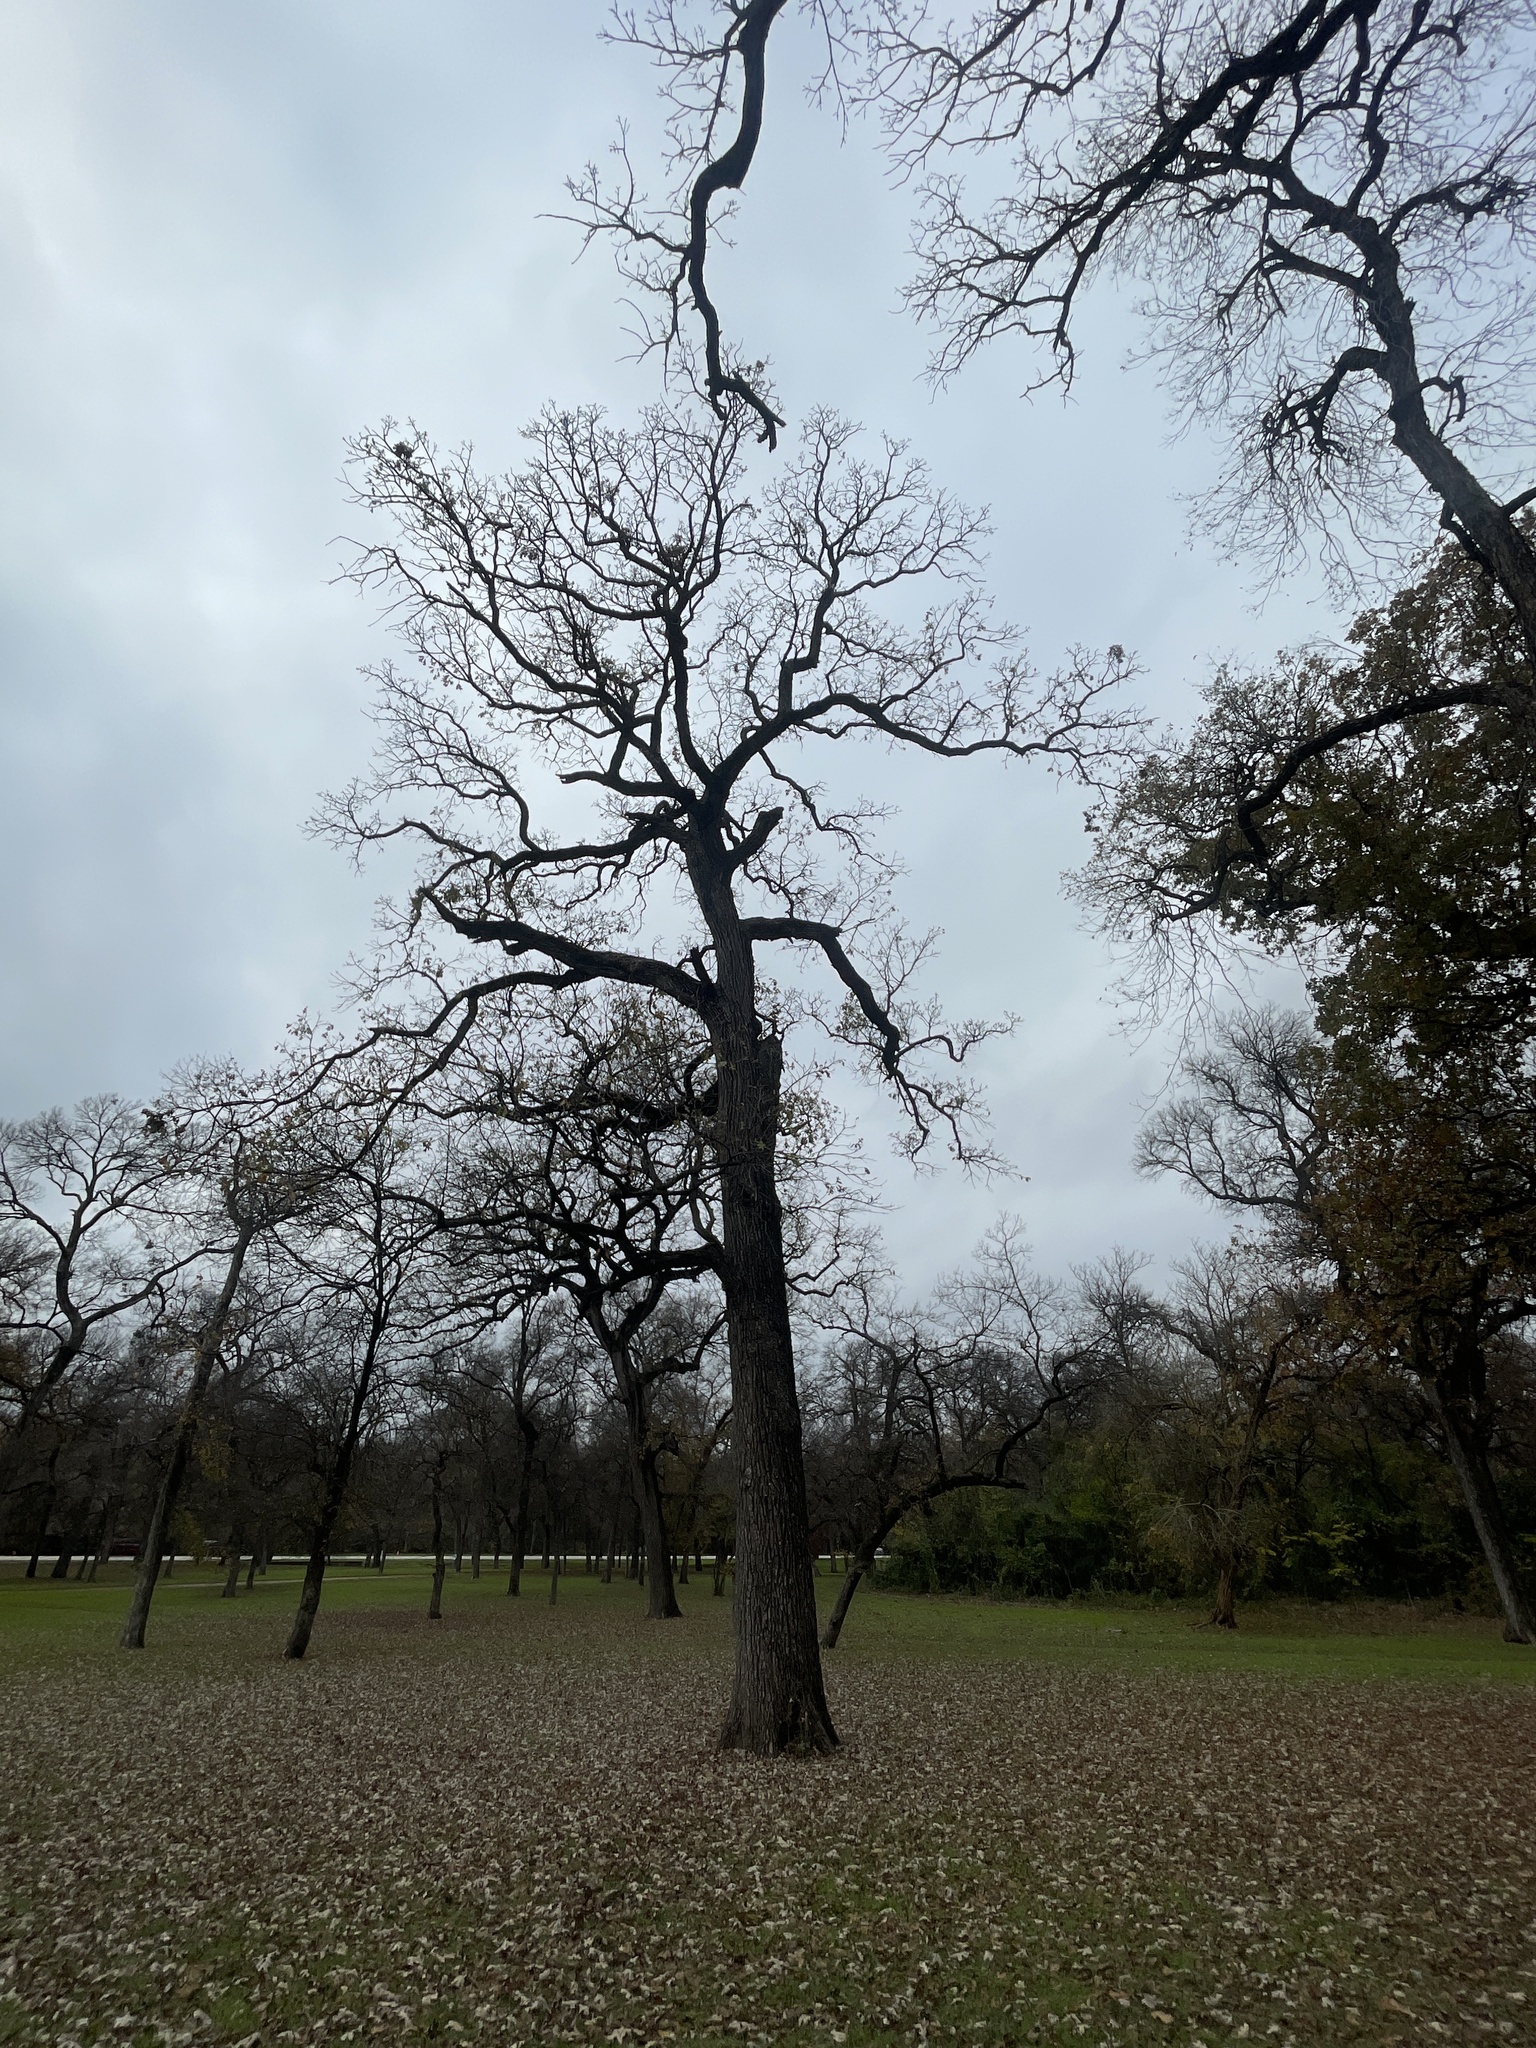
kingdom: Plantae
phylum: Tracheophyta
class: Magnoliopsida
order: Fagales
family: Fagaceae
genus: Quercus
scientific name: Quercus macrocarpa
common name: Bur oak
